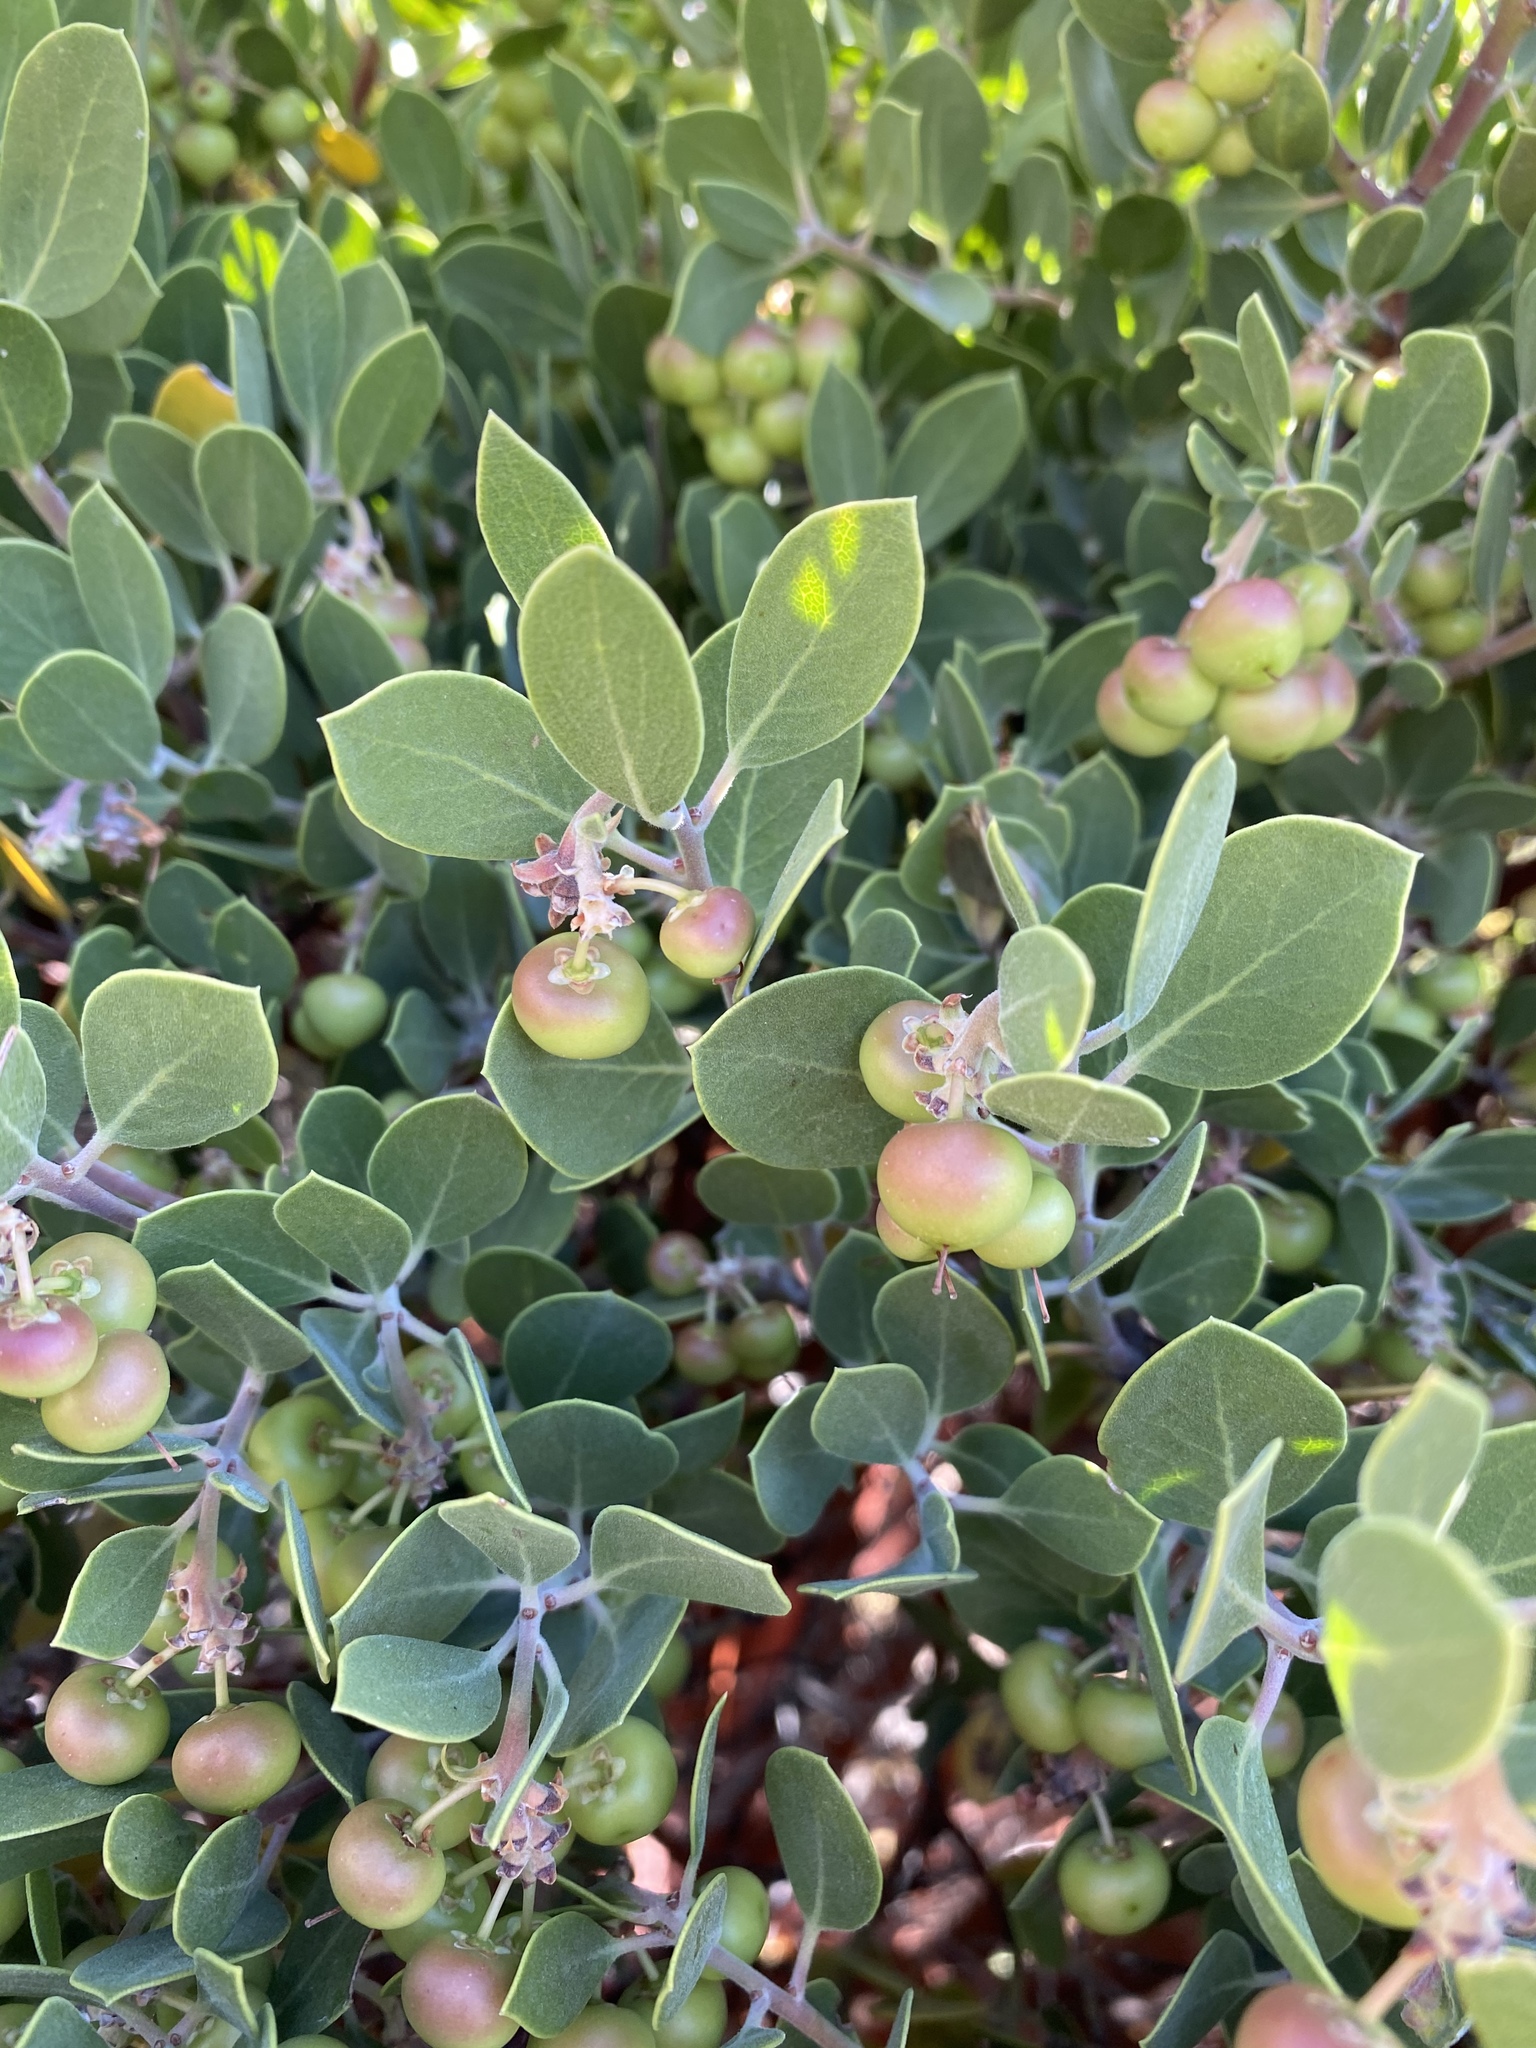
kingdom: Plantae
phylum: Tracheophyta
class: Magnoliopsida
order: Ericales
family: Ericaceae
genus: Arctostaphylos
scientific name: Arctostaphylos pungens
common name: Mexican manzanita
